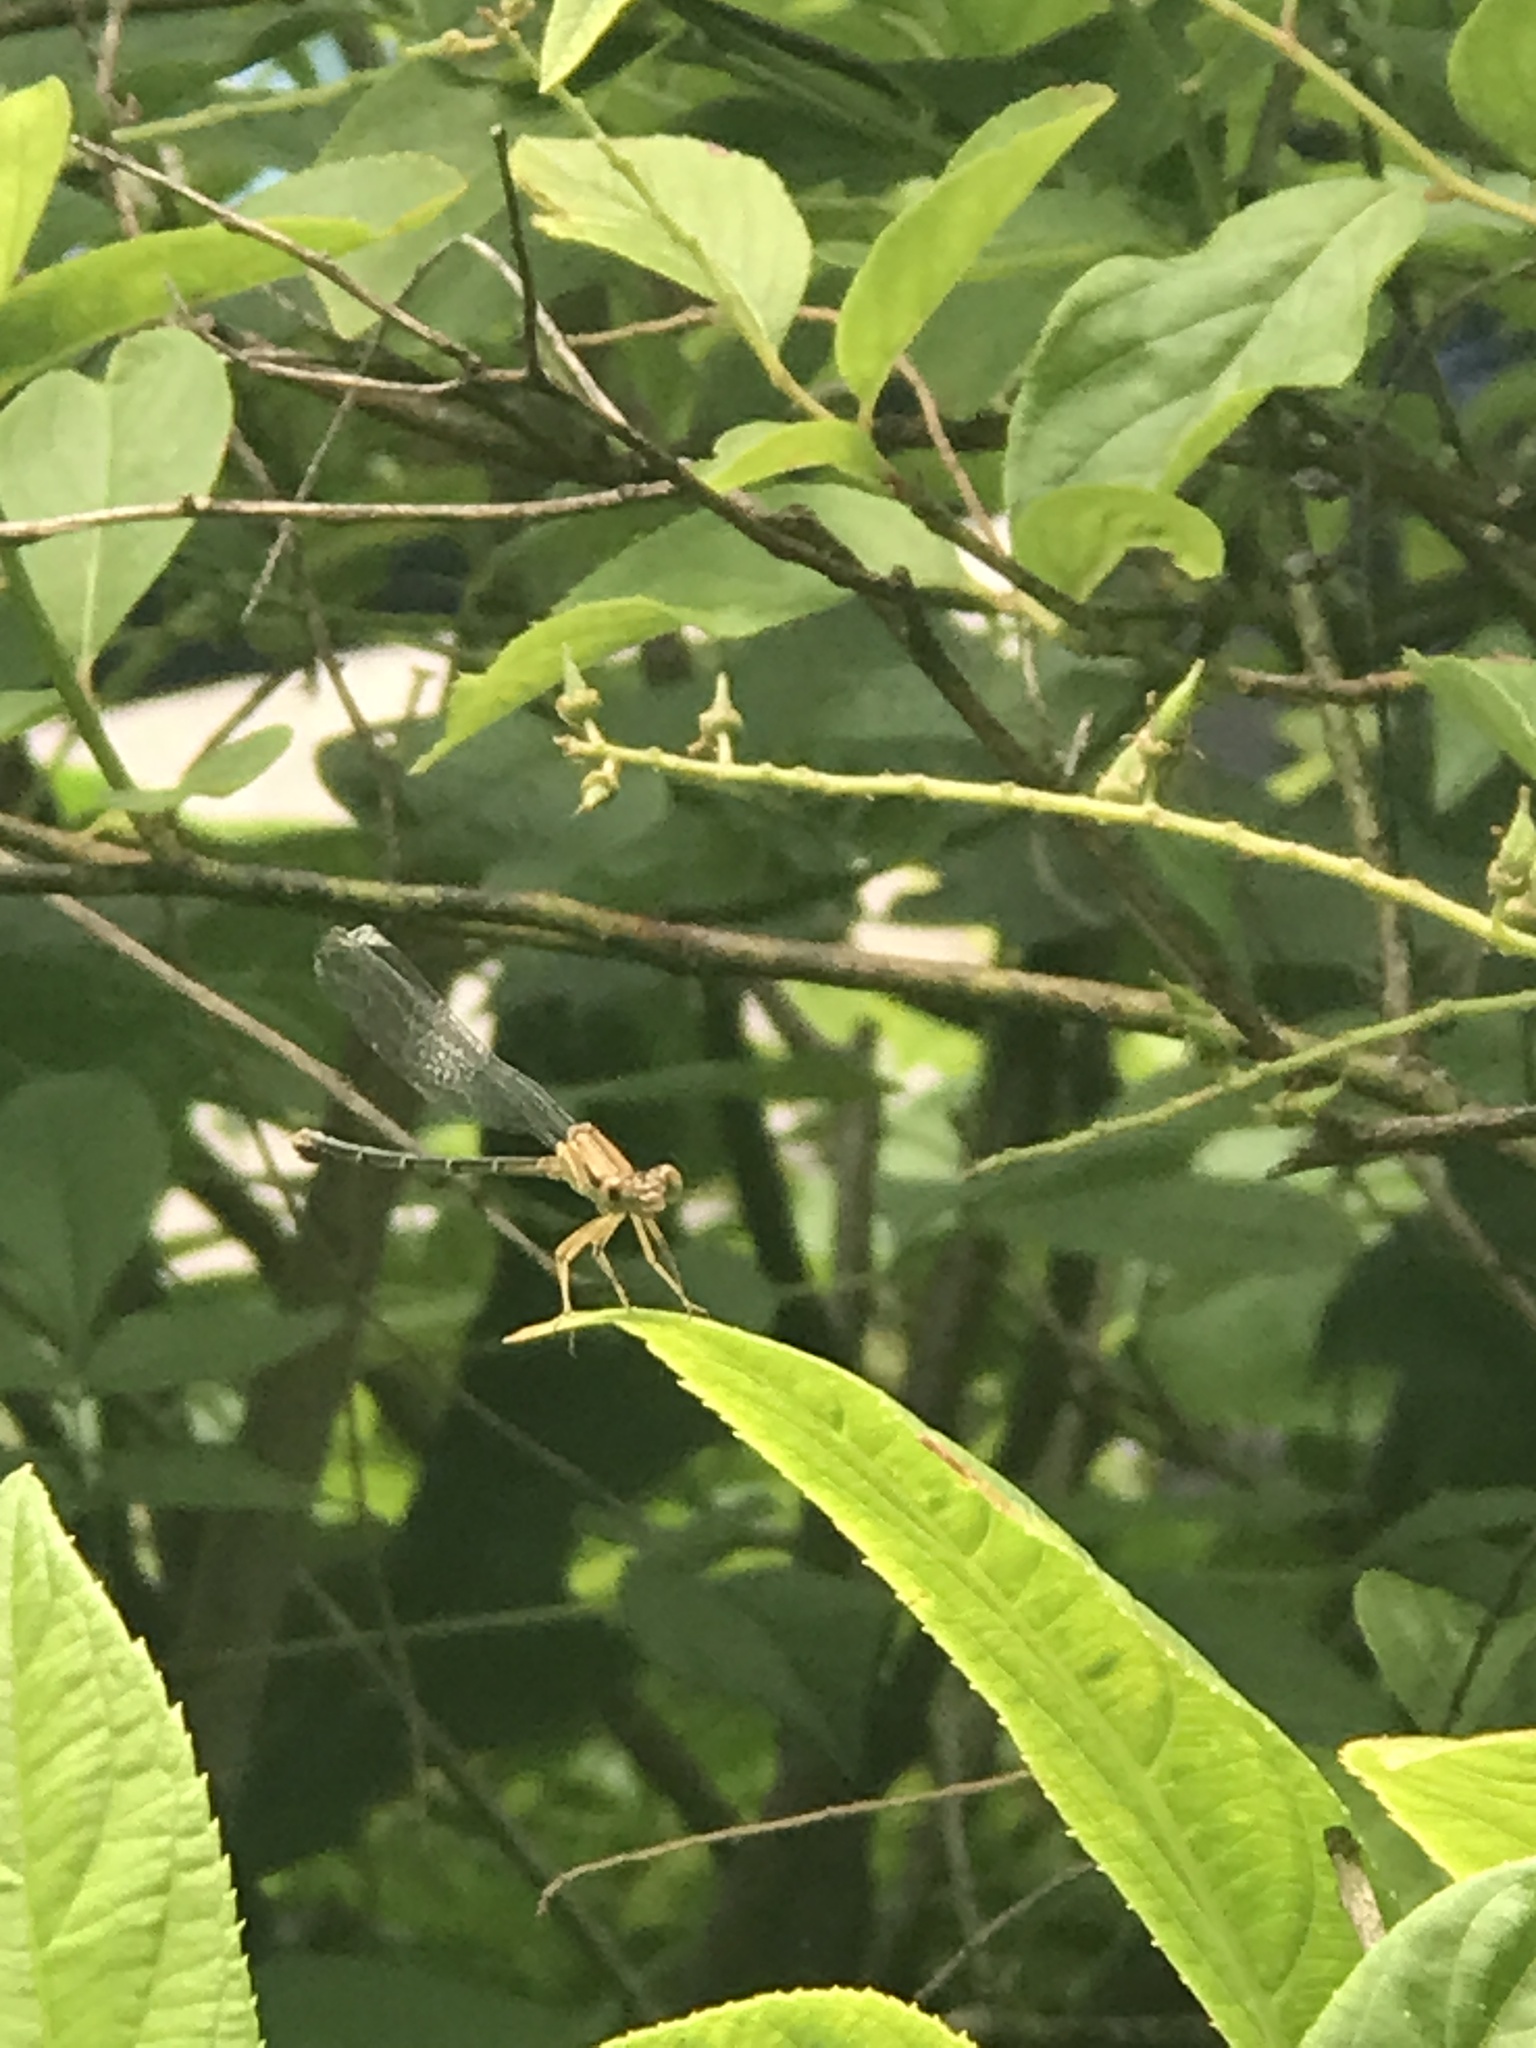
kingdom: Animalia
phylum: Arthropoda
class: Insecta
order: Odonata
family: Coenagrionidae
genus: Argia
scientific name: Argia apicalis
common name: Blue-fronted dancer
